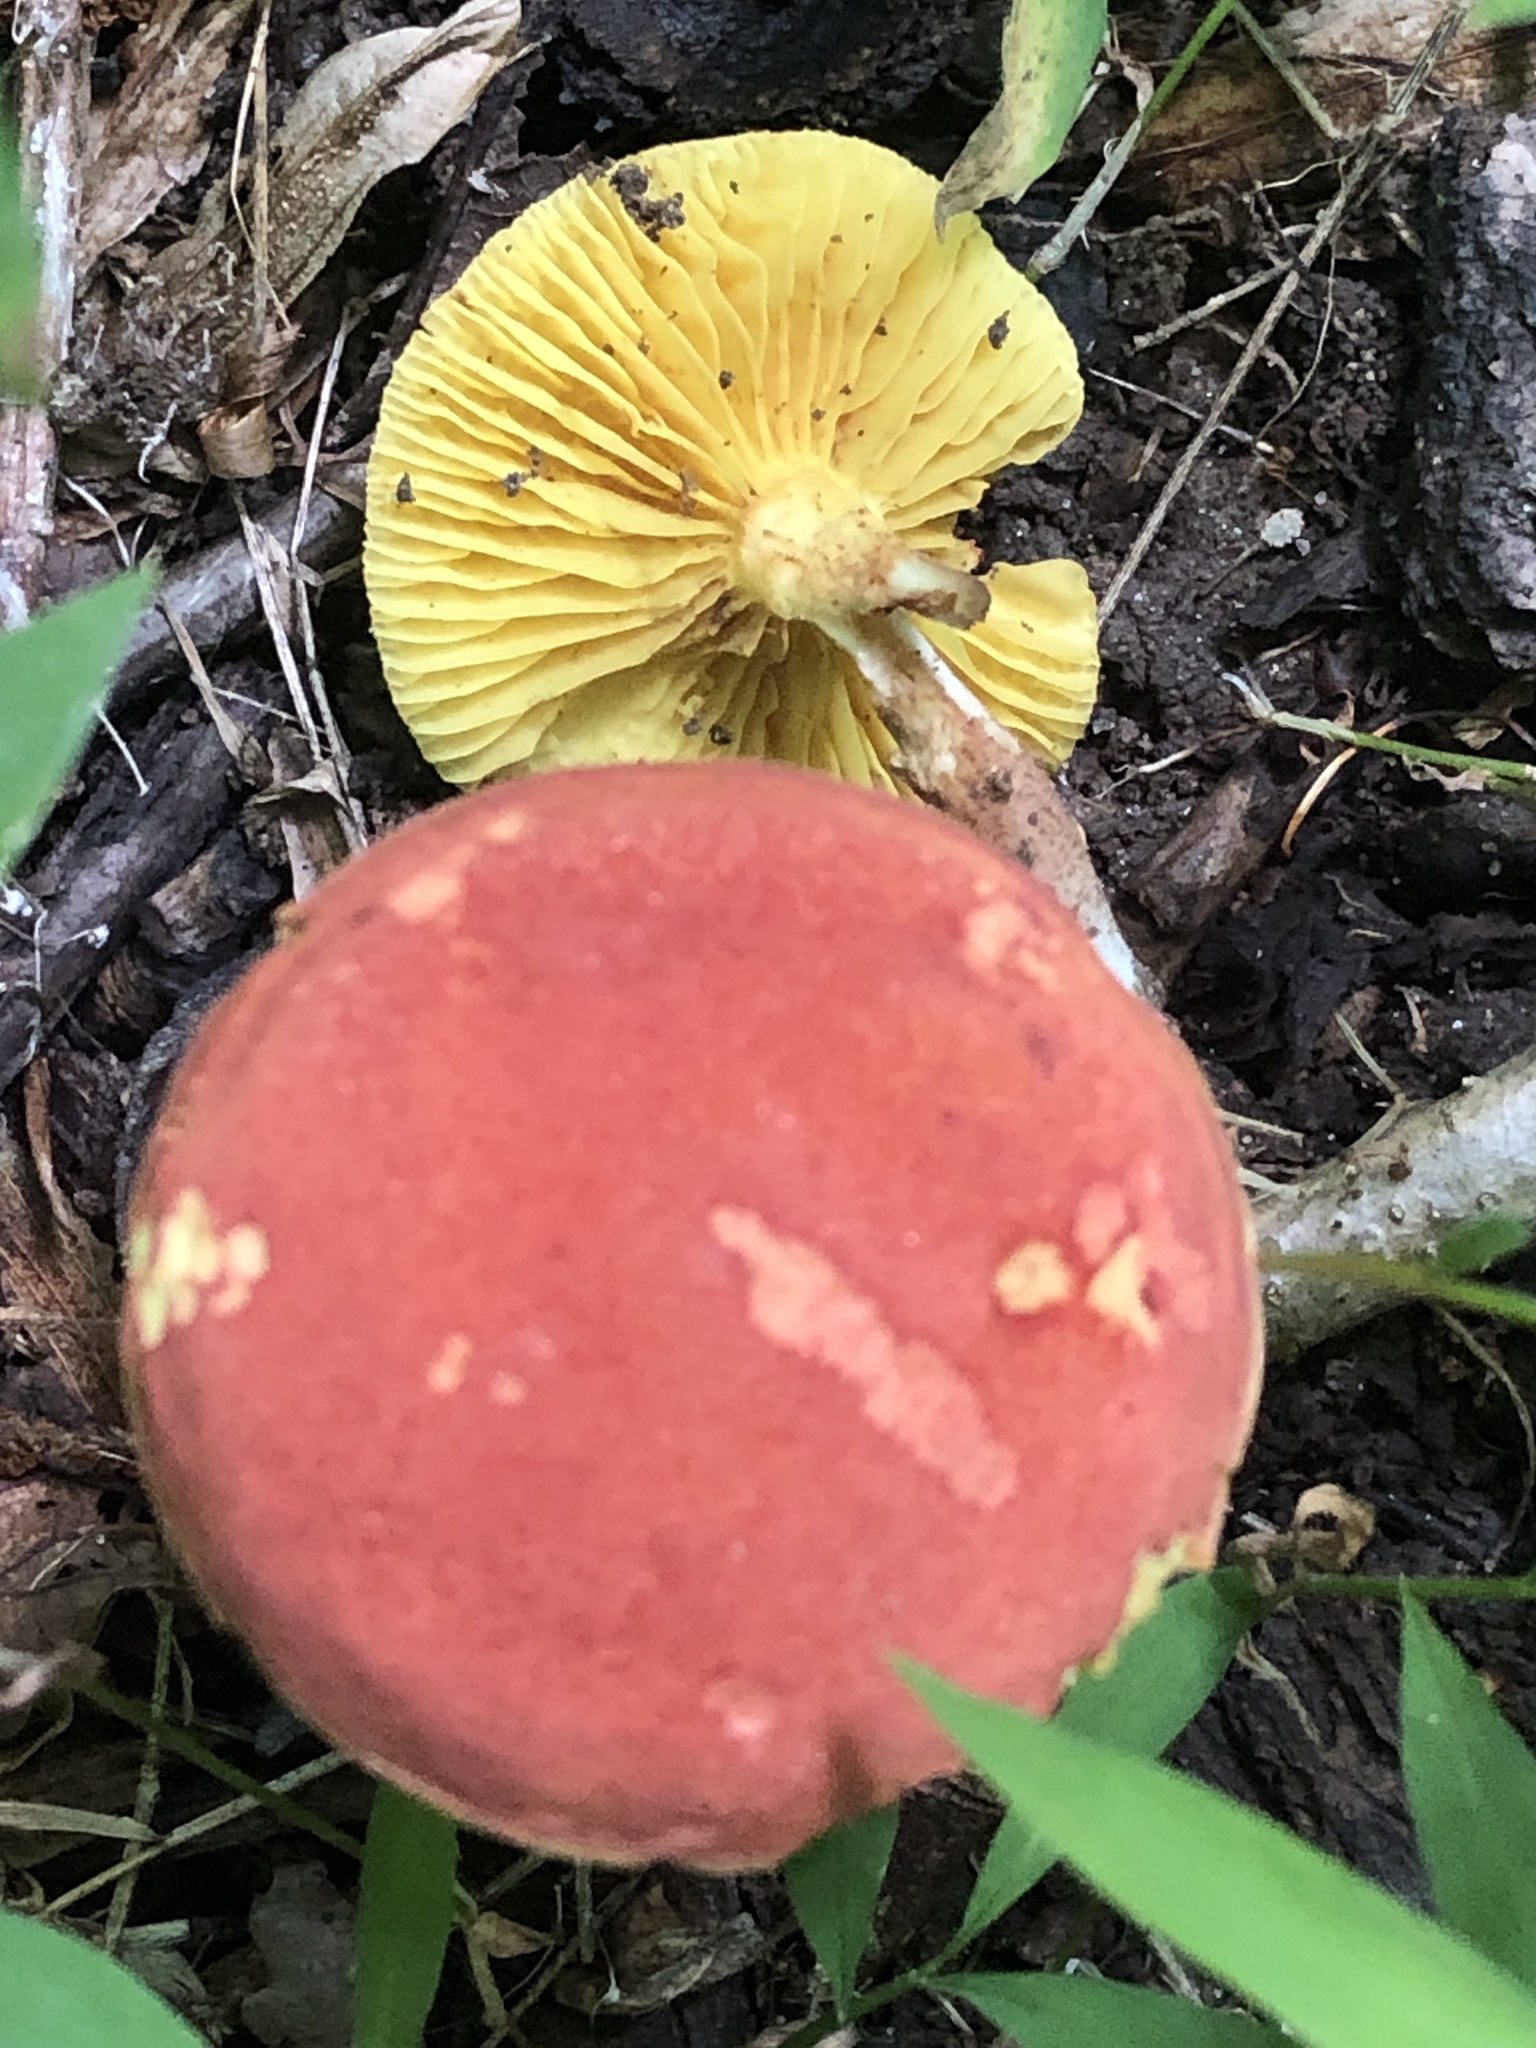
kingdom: Fungi
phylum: Basidiomycota
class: Agaricomycetes
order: Boletales
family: Boletaceae
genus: Phylloporus
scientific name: Phylloporus rhodoxanthus
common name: Golden gilled bolete
